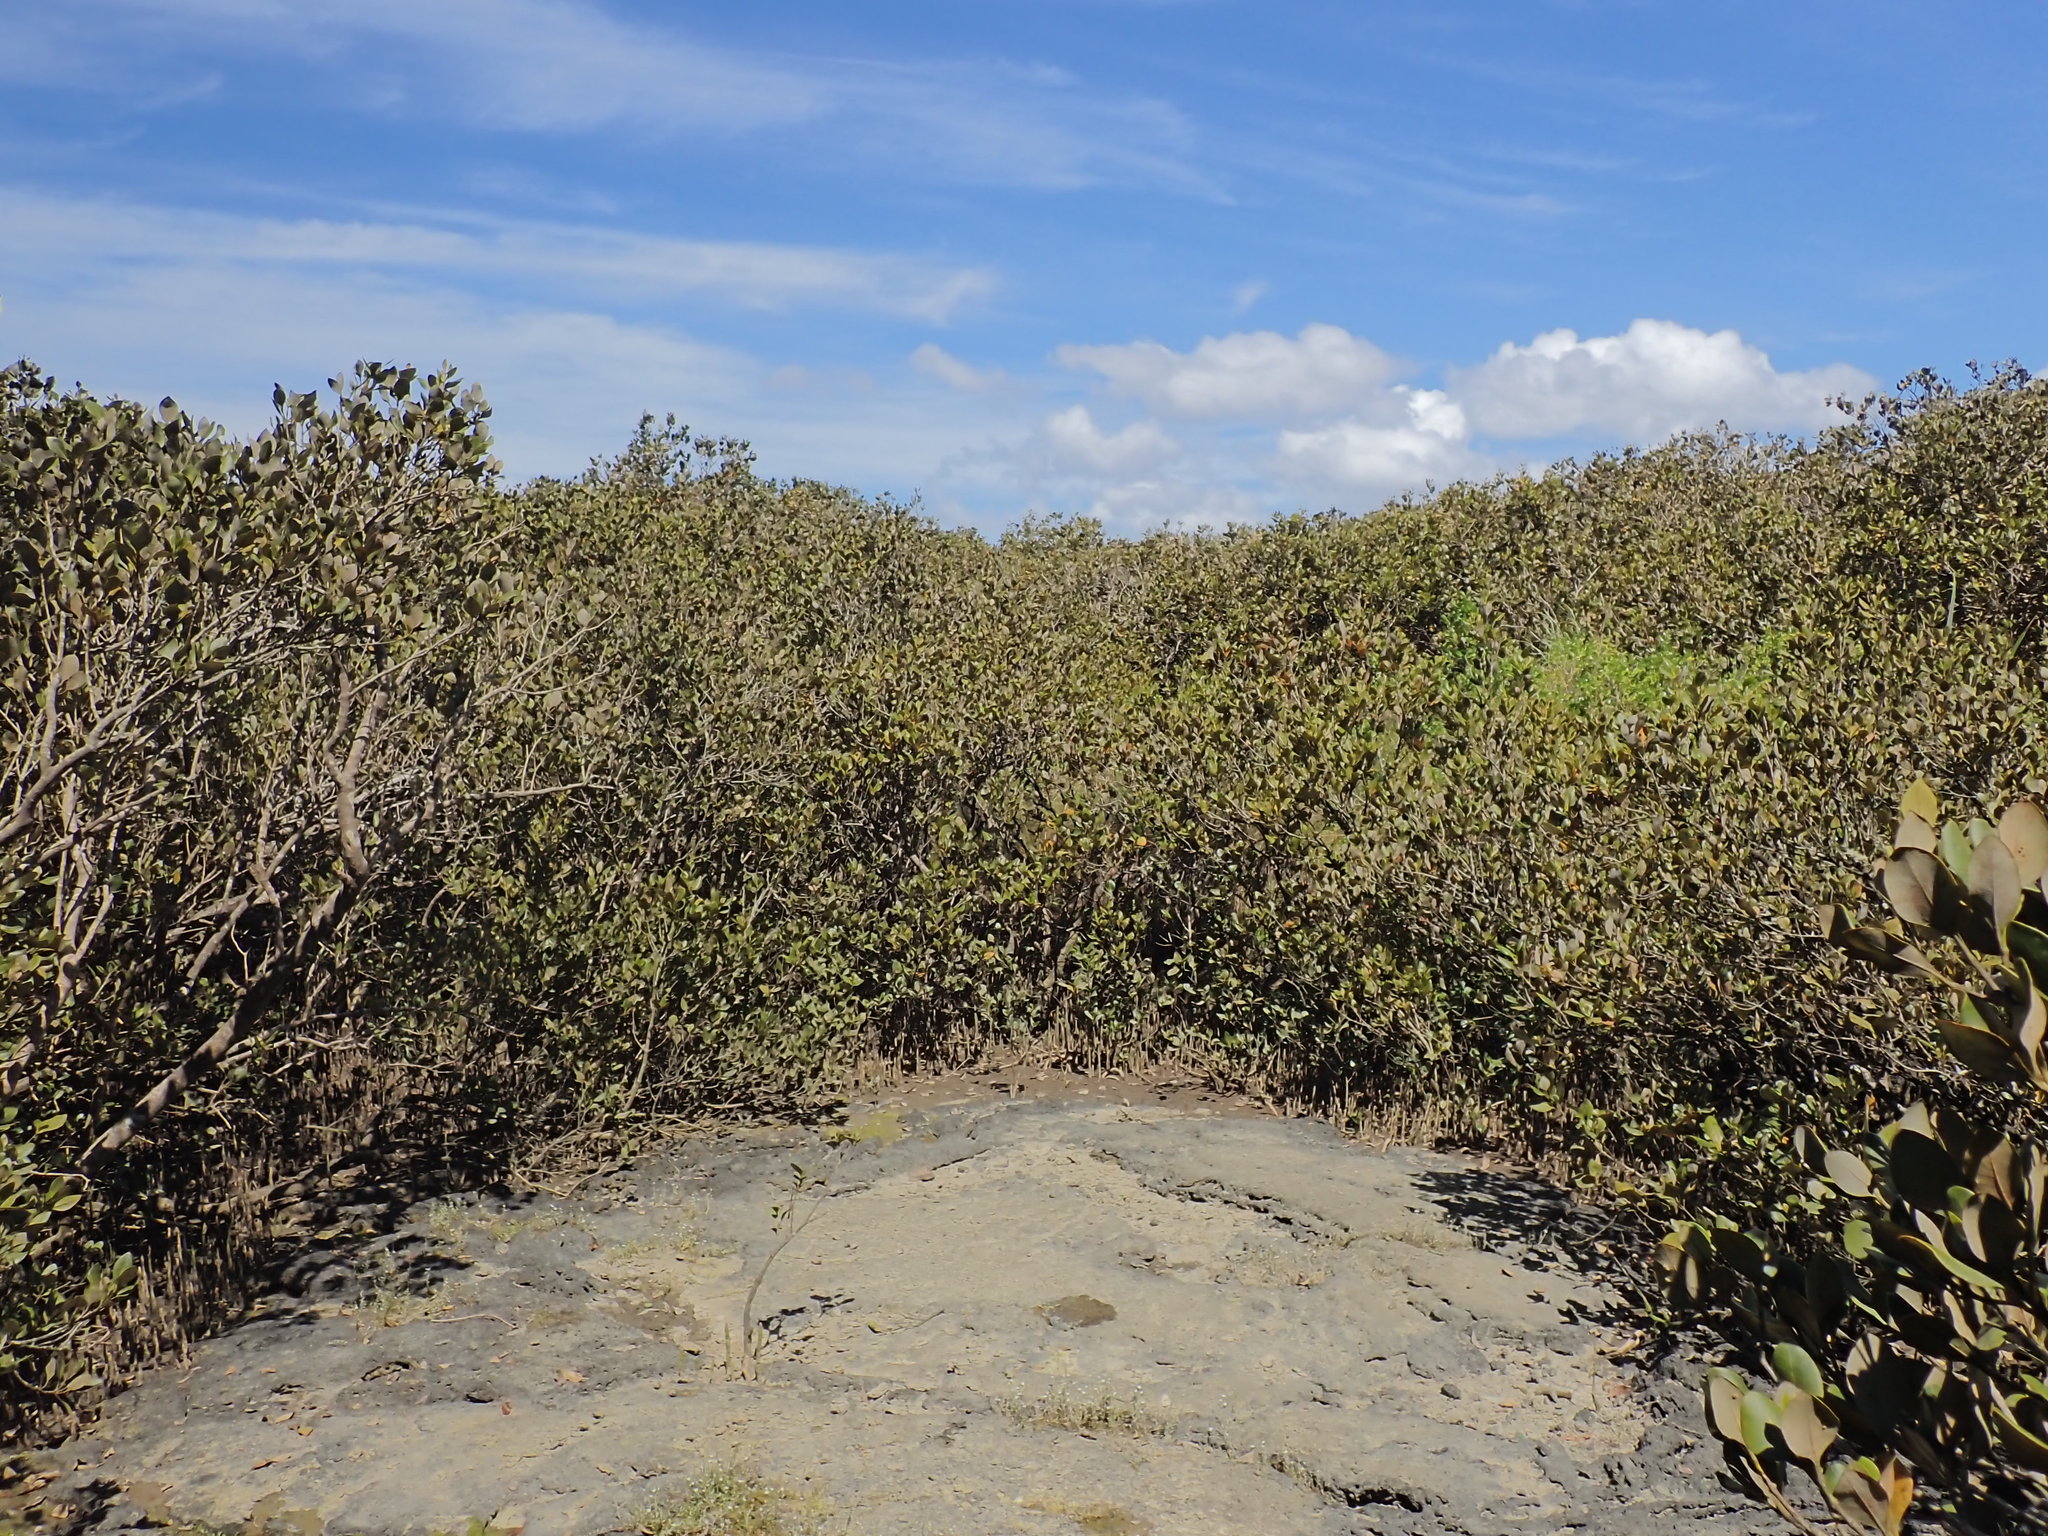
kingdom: Plantae
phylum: Tracheophyta
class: Magnoliopsida
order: Lamiales
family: Acanthaceae
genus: Avicennia
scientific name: Avicennia marina
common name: Gray mangrove
